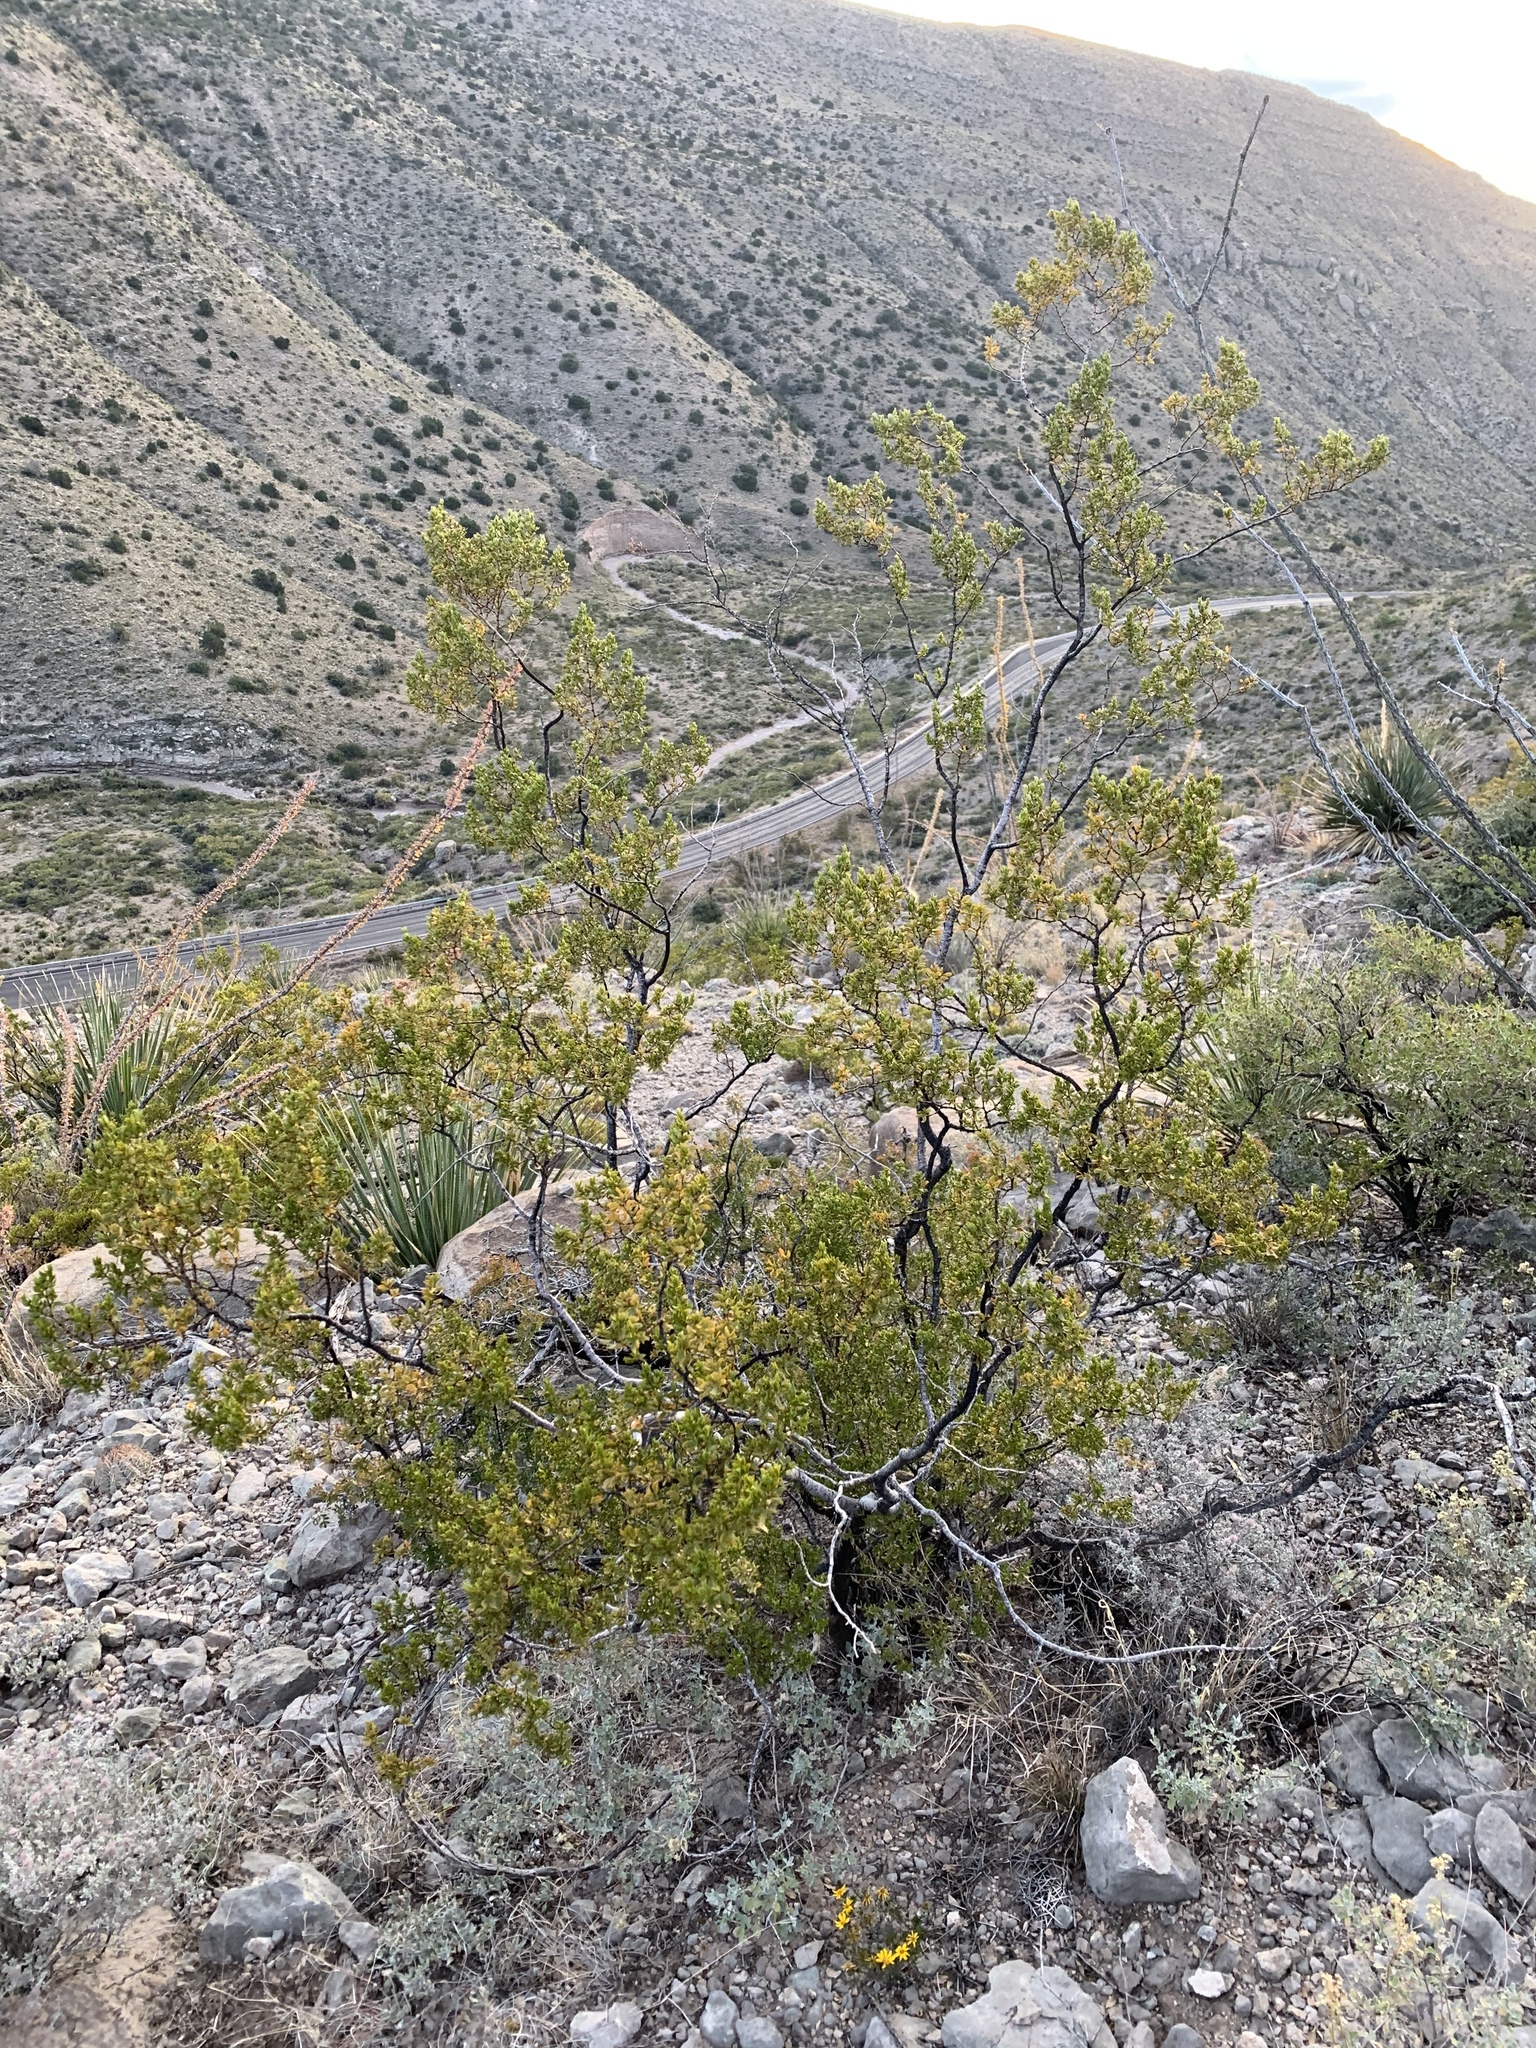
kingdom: Plantae
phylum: Tracheophyta
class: Magnoliopsida
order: Zygophyllales
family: Zygophyllaceae
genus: Larrea
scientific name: Larrea tridentata
